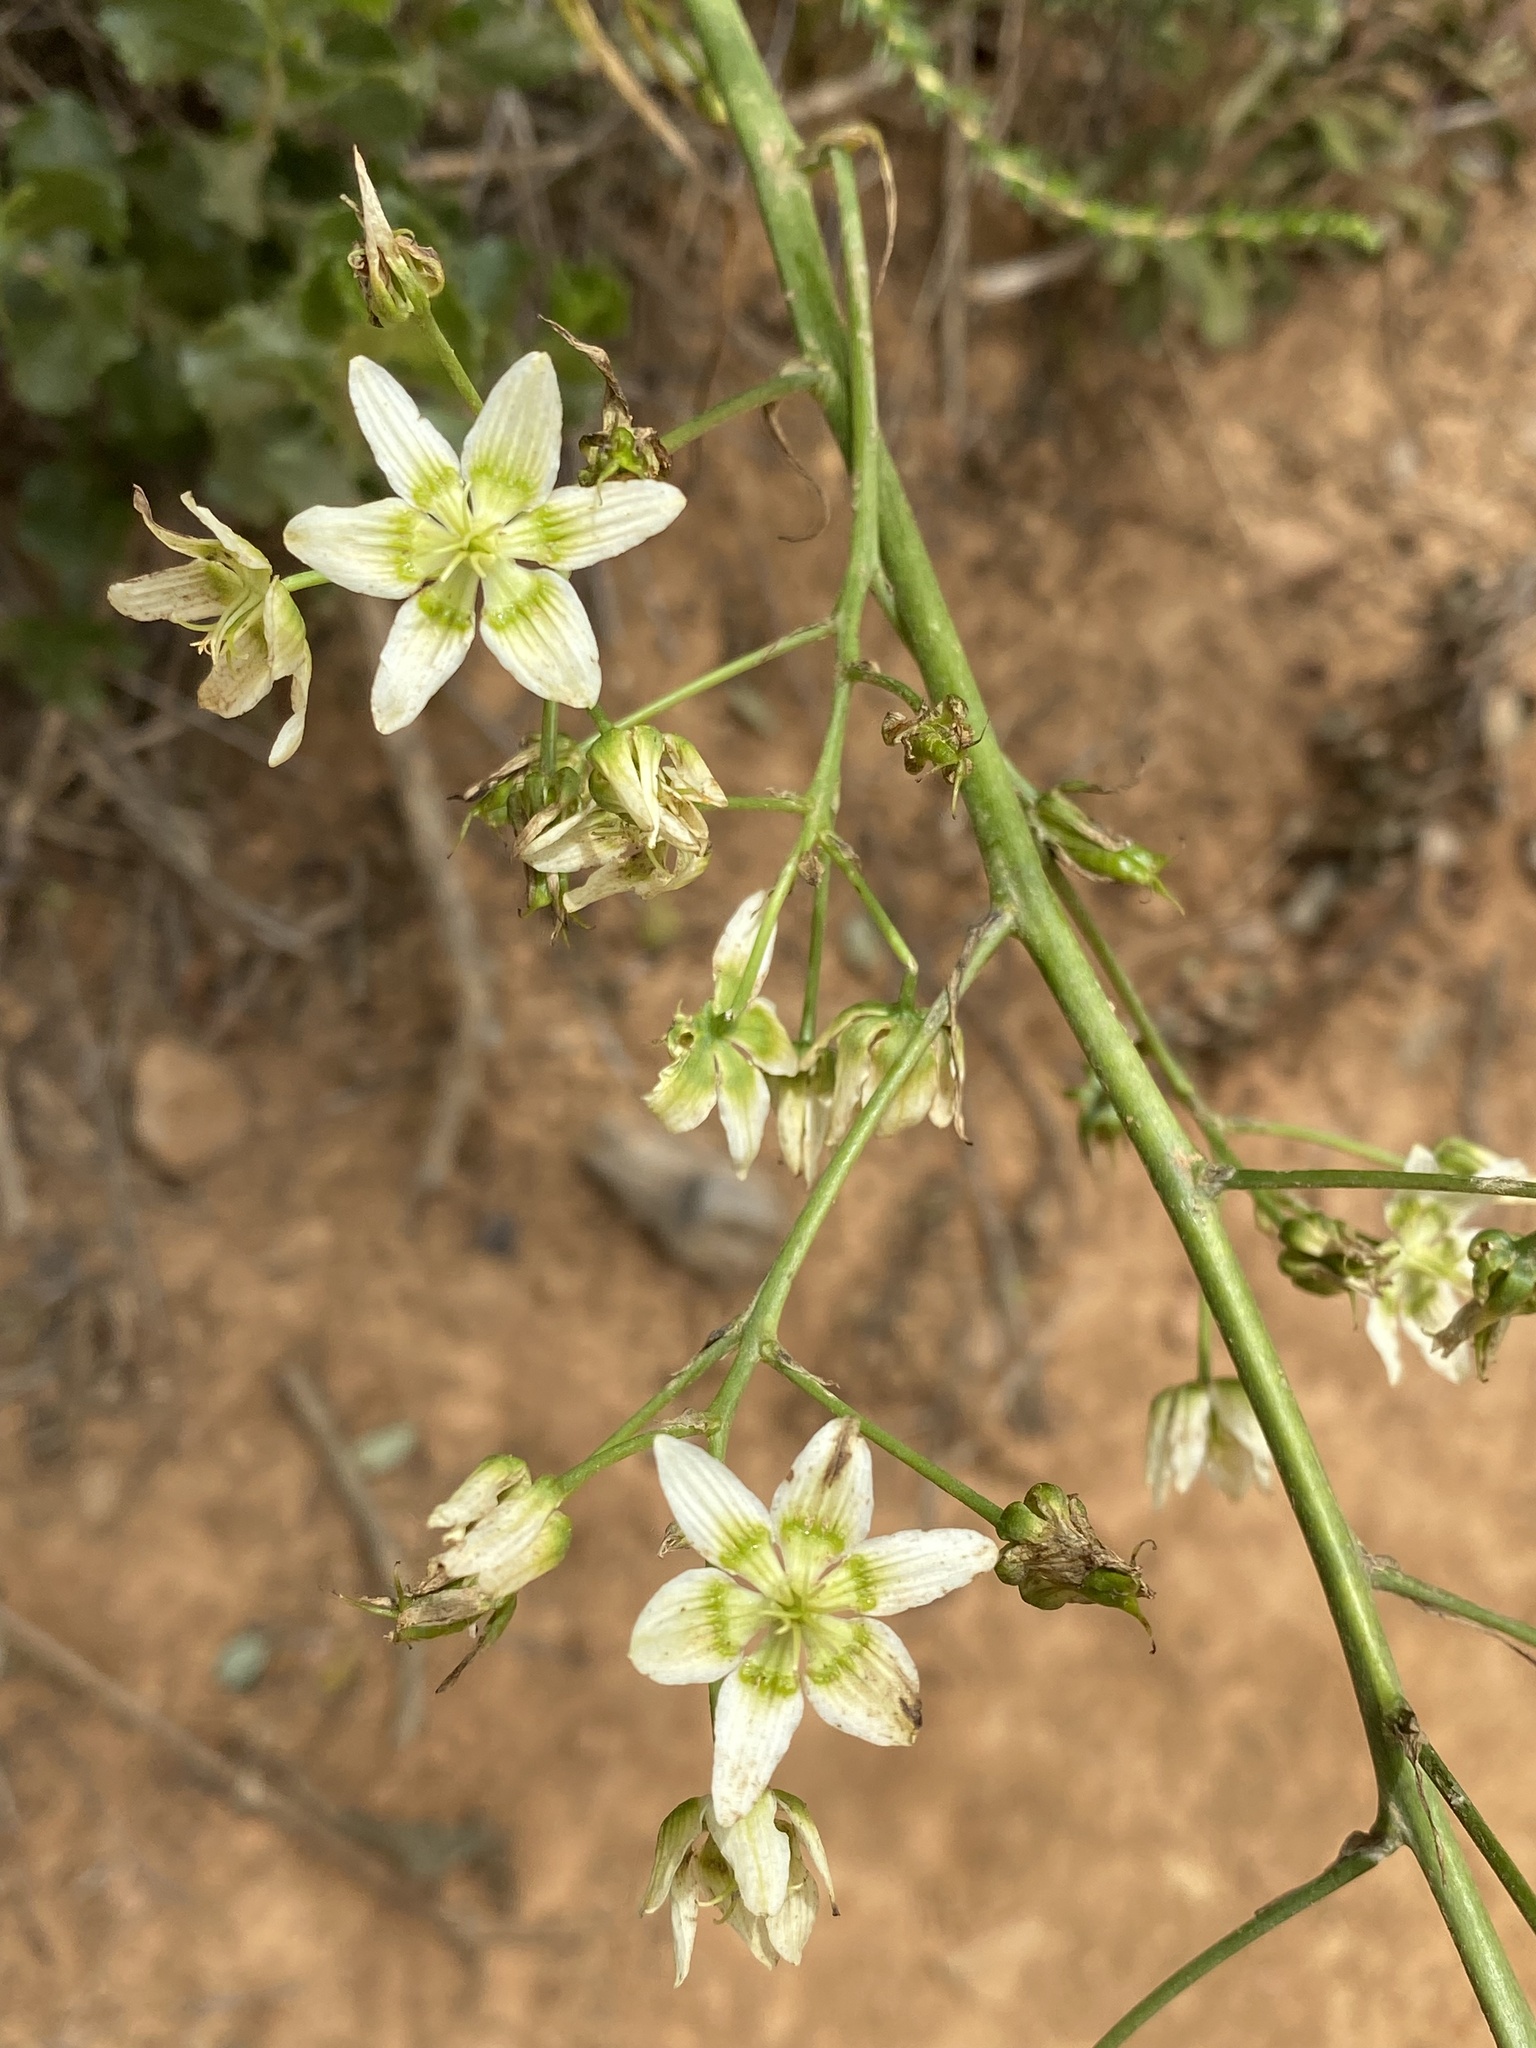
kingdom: Plantae
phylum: Tracheophyta
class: Liliopsida
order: Liliales
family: Melanthiaceae
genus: Toxicoscordion
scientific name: Toxicoscordion fremontii
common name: Fremont's death camas
